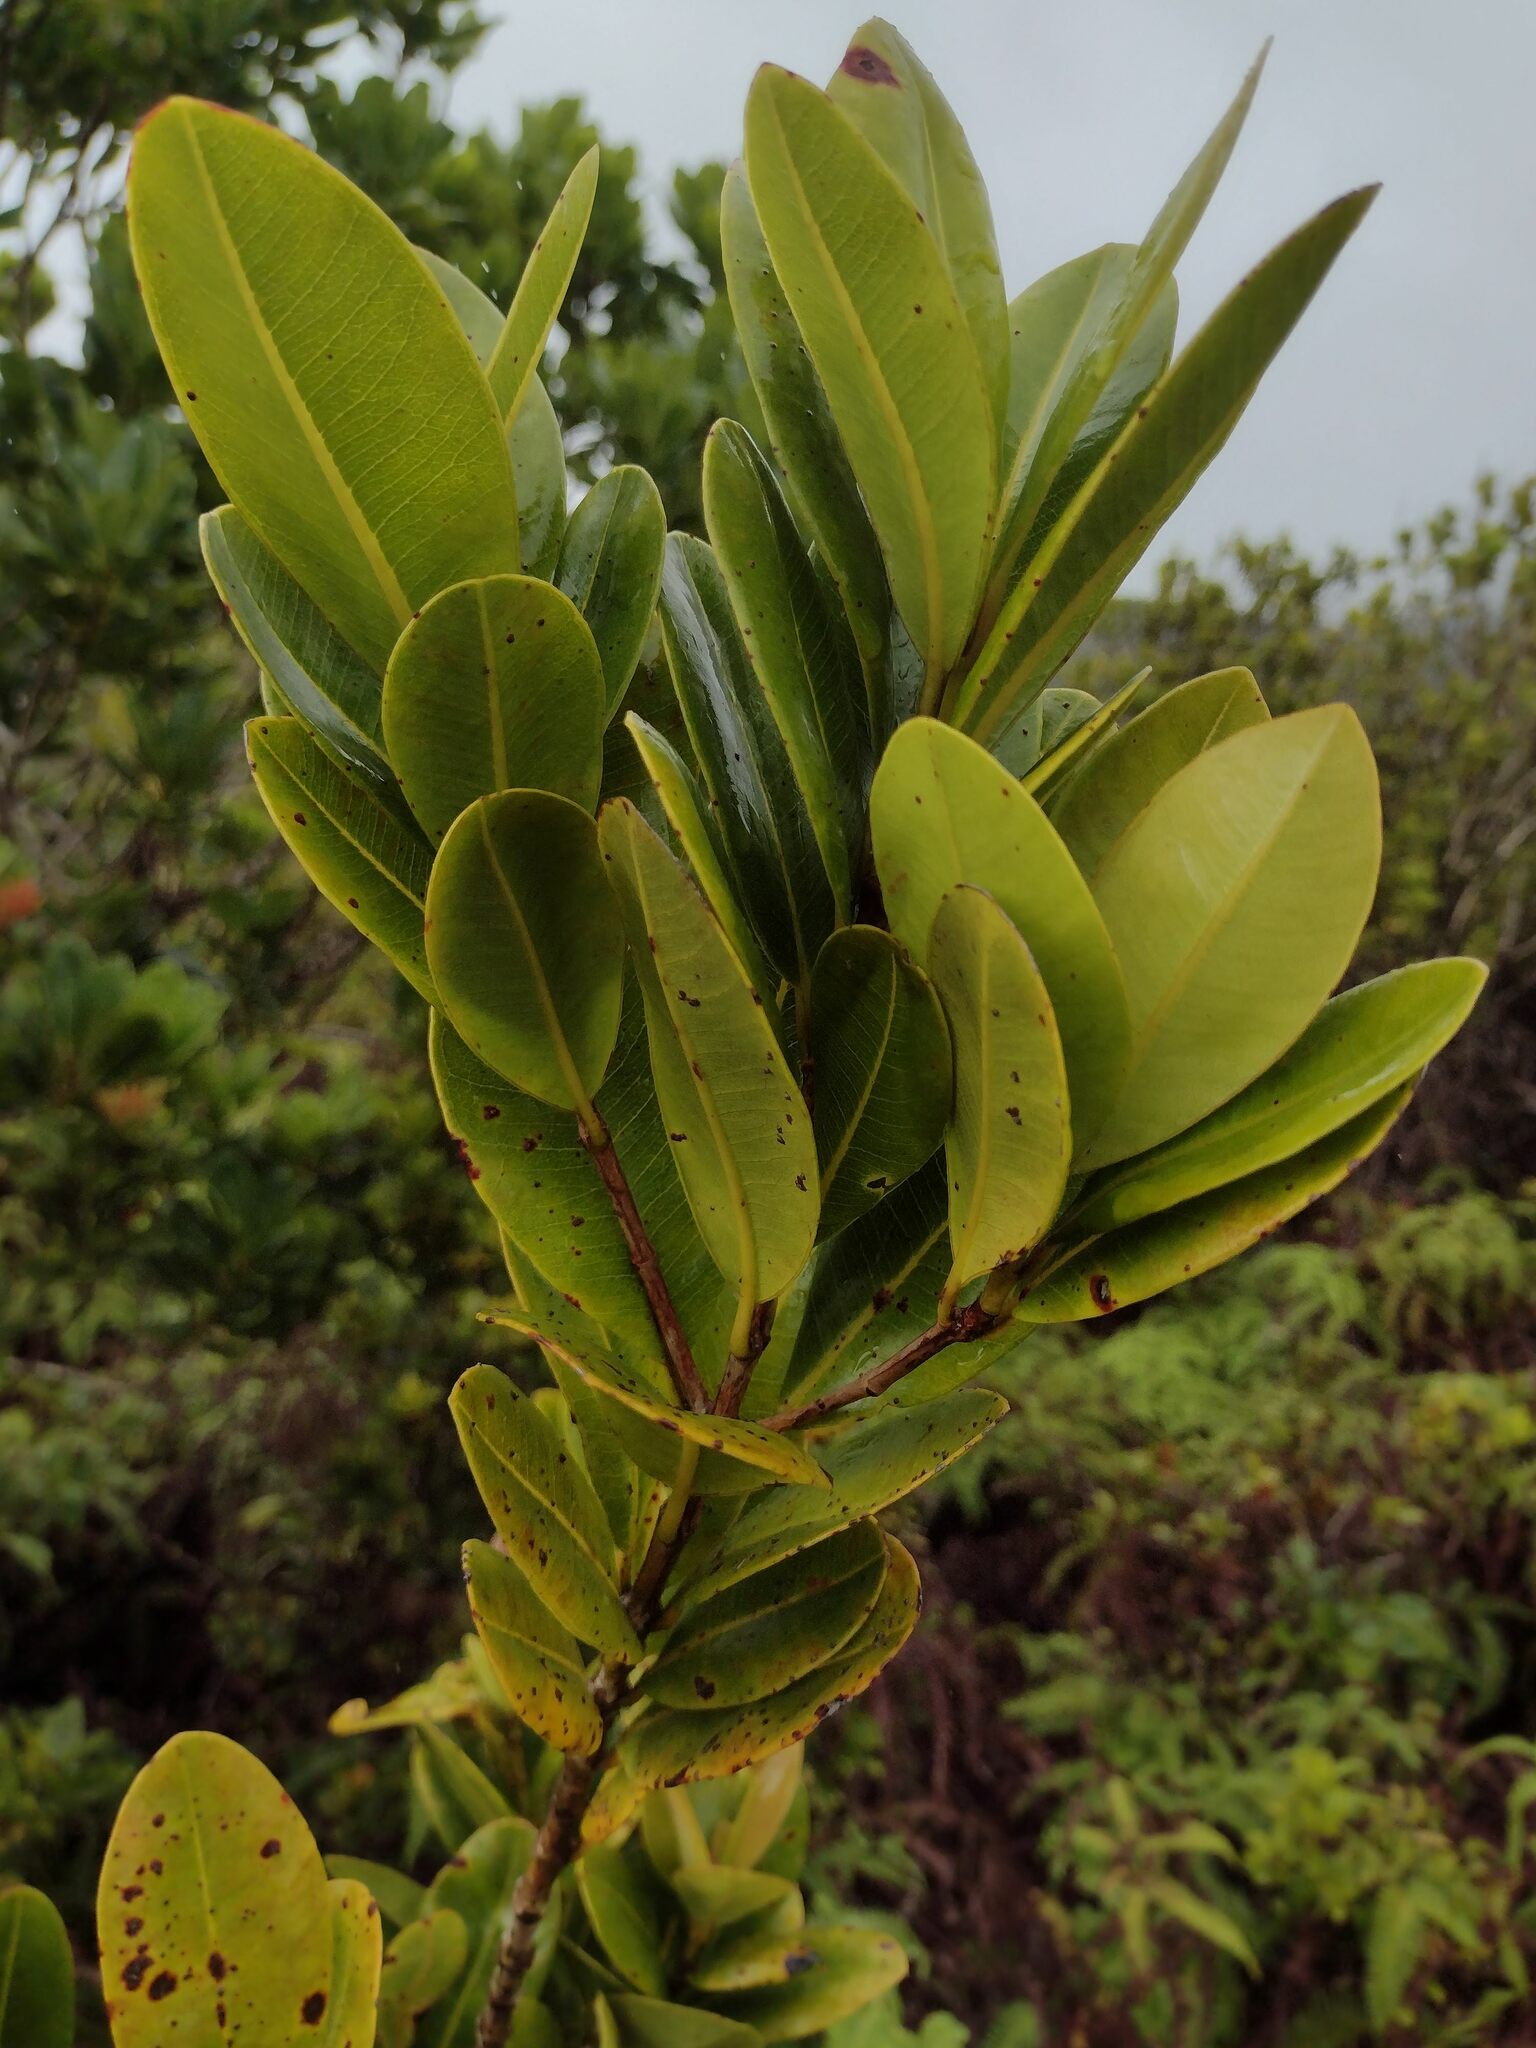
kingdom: Plantae
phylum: Tracheophyta
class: Magnoliopsida
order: Myrtales
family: Myrtaceae
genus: Syzygium
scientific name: Syzygium sandwicense
